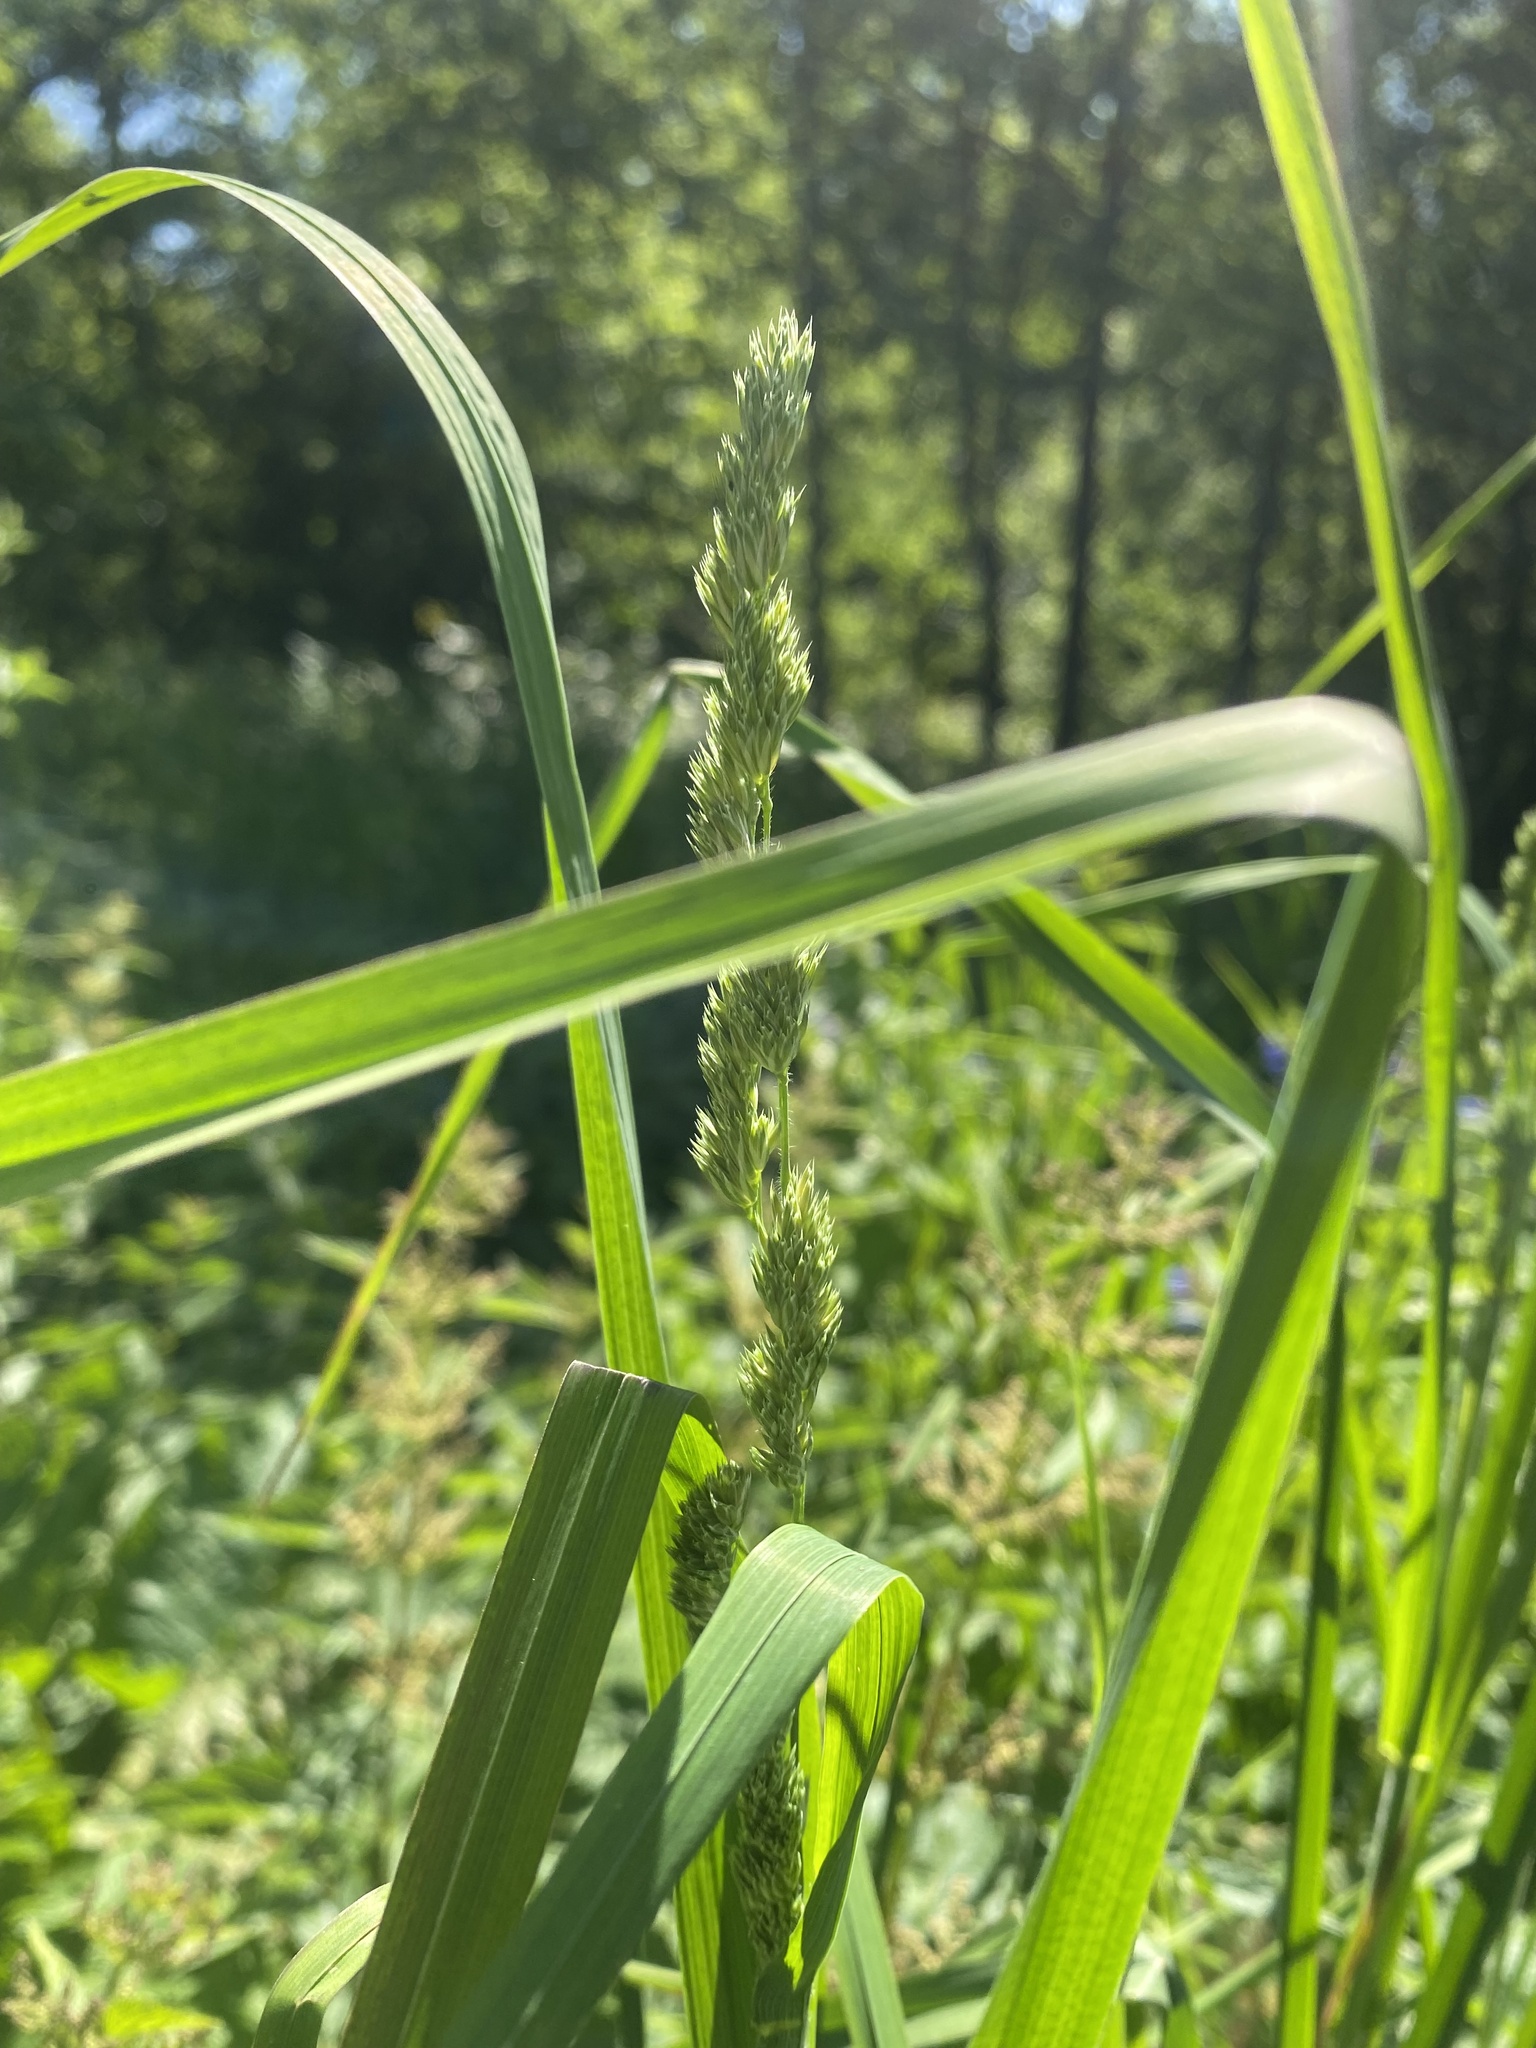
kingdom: Plantae
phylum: Tracheophyta
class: Liliopsida
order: Poales
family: Poaceae
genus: Dactylis
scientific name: Dactylis glomerata
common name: Orchardgrass
